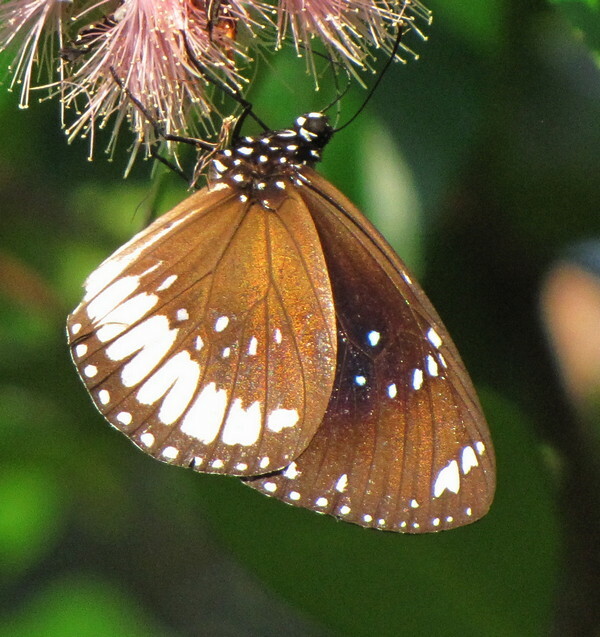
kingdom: Animalia
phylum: Arthropoda
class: Insecta
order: Lepidoptera
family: Nymphalidae
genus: Euploea
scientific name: Euploea alcathoe
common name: No-brand crow
